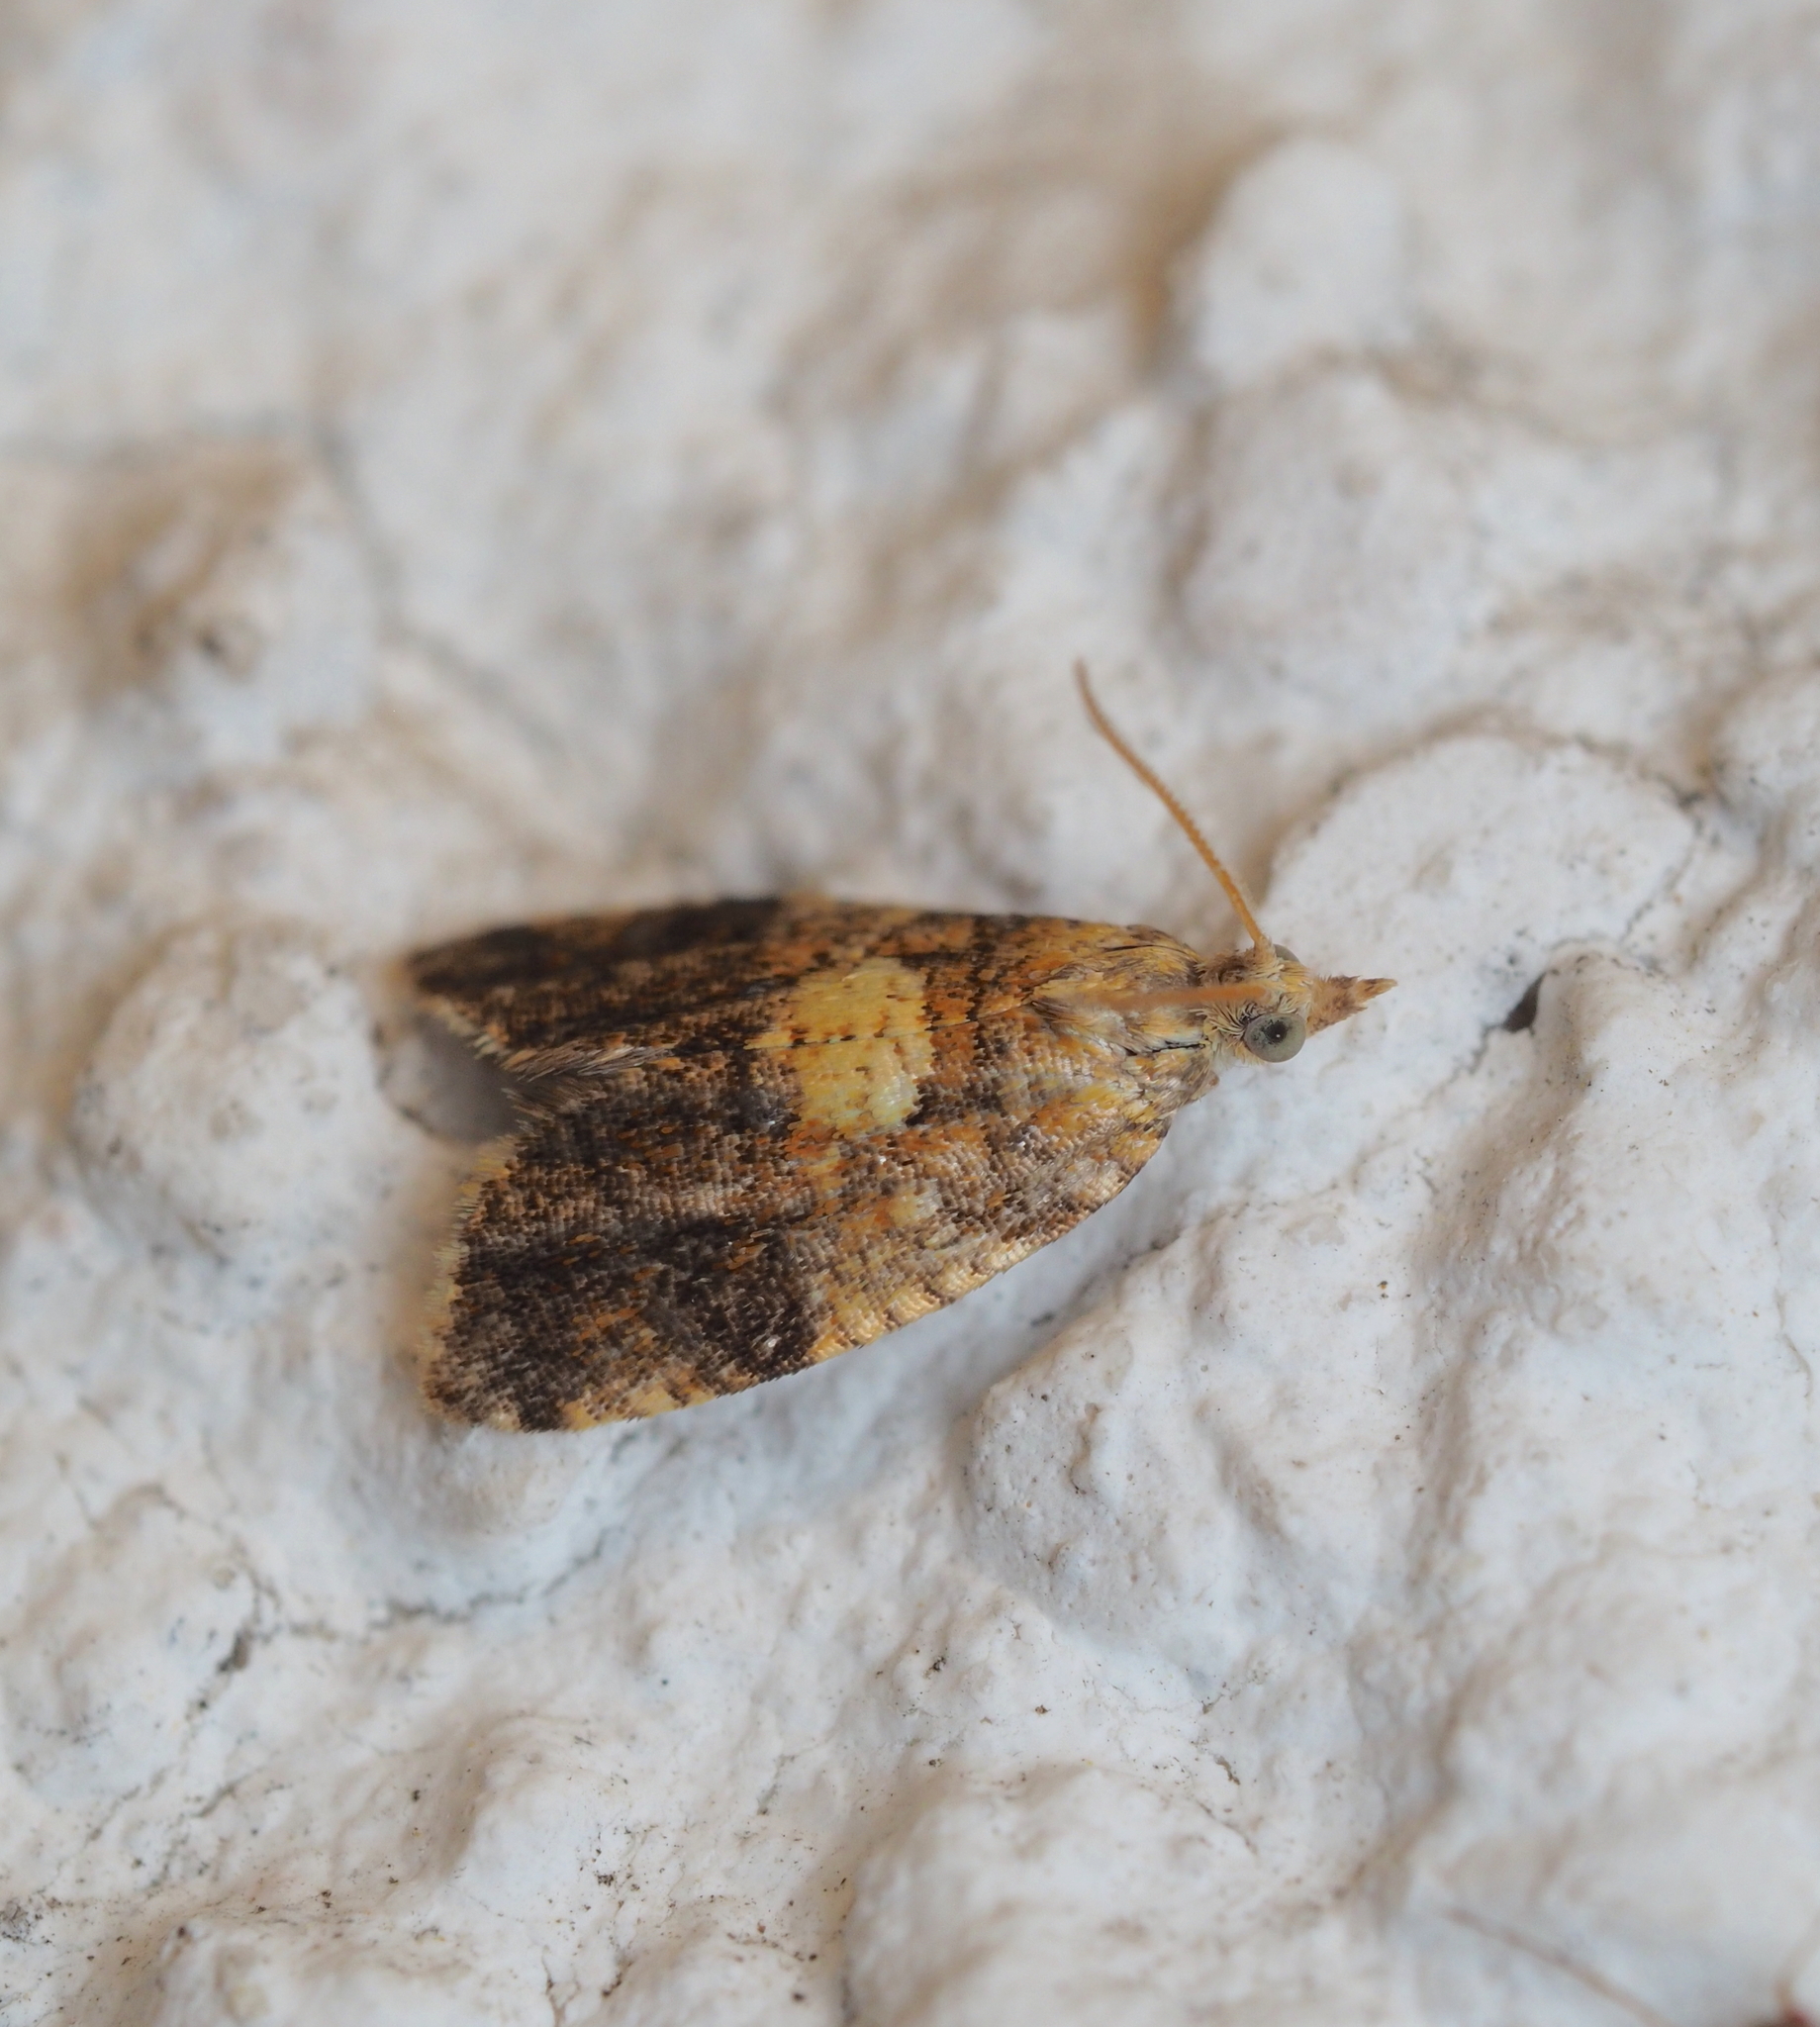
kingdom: Animalia
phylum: Arthropoda
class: Insecta
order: Lepidoptera
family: Tortricidae
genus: Pseudargyrotoza
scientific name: Pseudargyrotoza conwagana
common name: Yellow-spot twist
